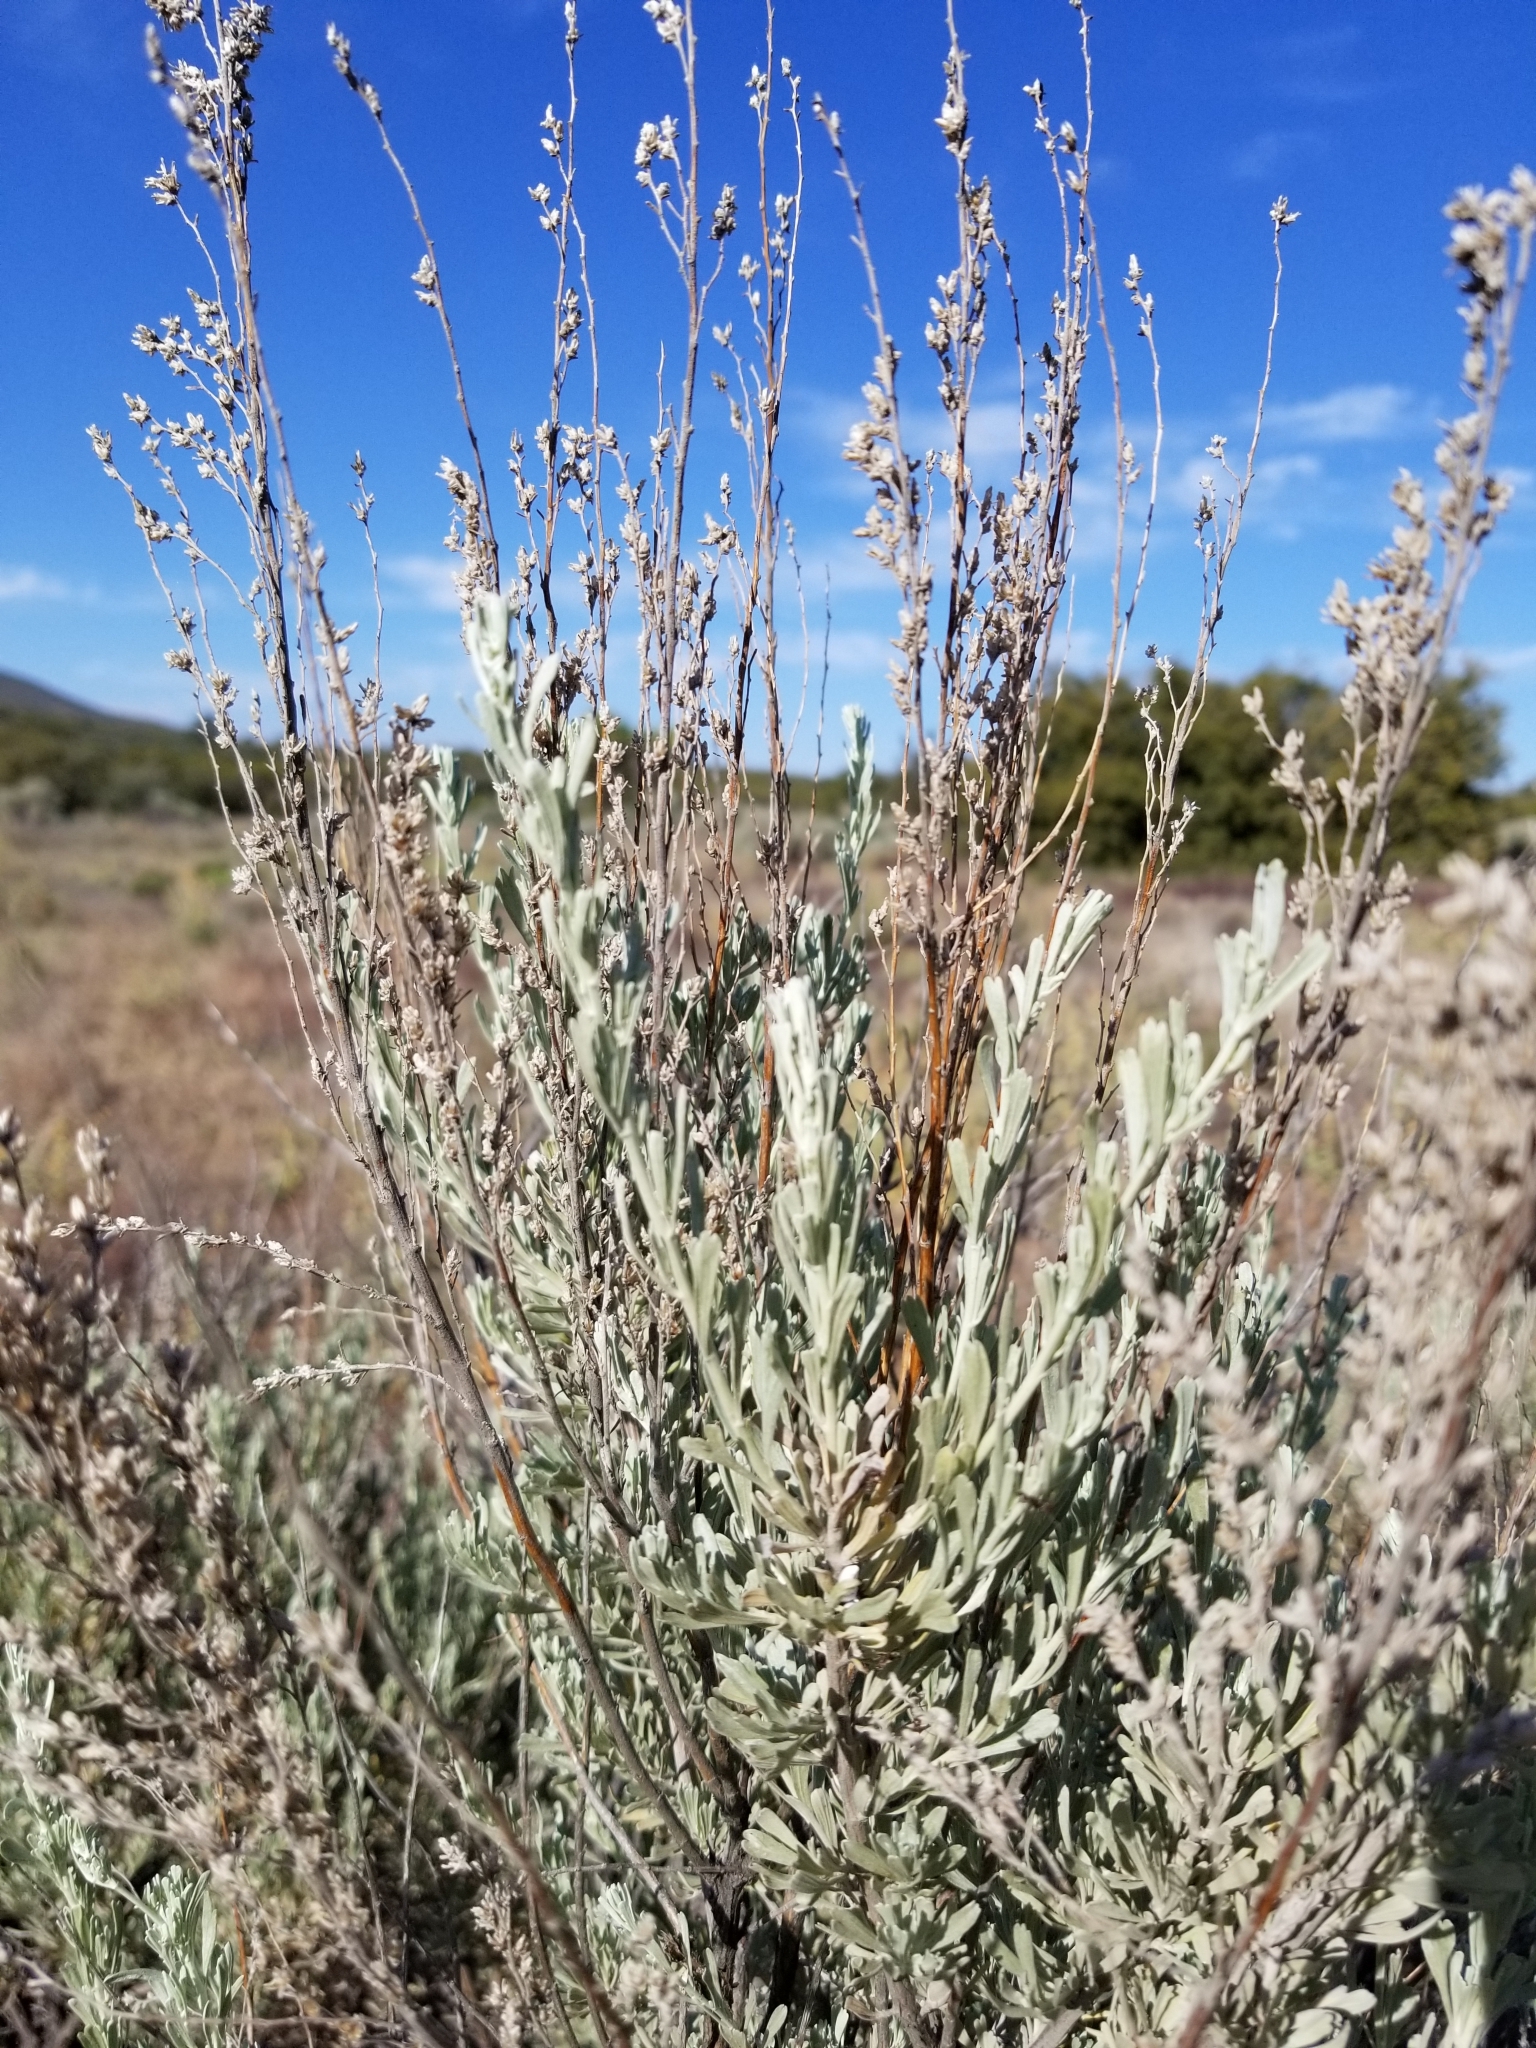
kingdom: Plantae
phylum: Tracheophyta
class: Magnoliopsida
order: Asterales
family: Asteraceae
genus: Artemisia
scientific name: Artemisia tridentata
